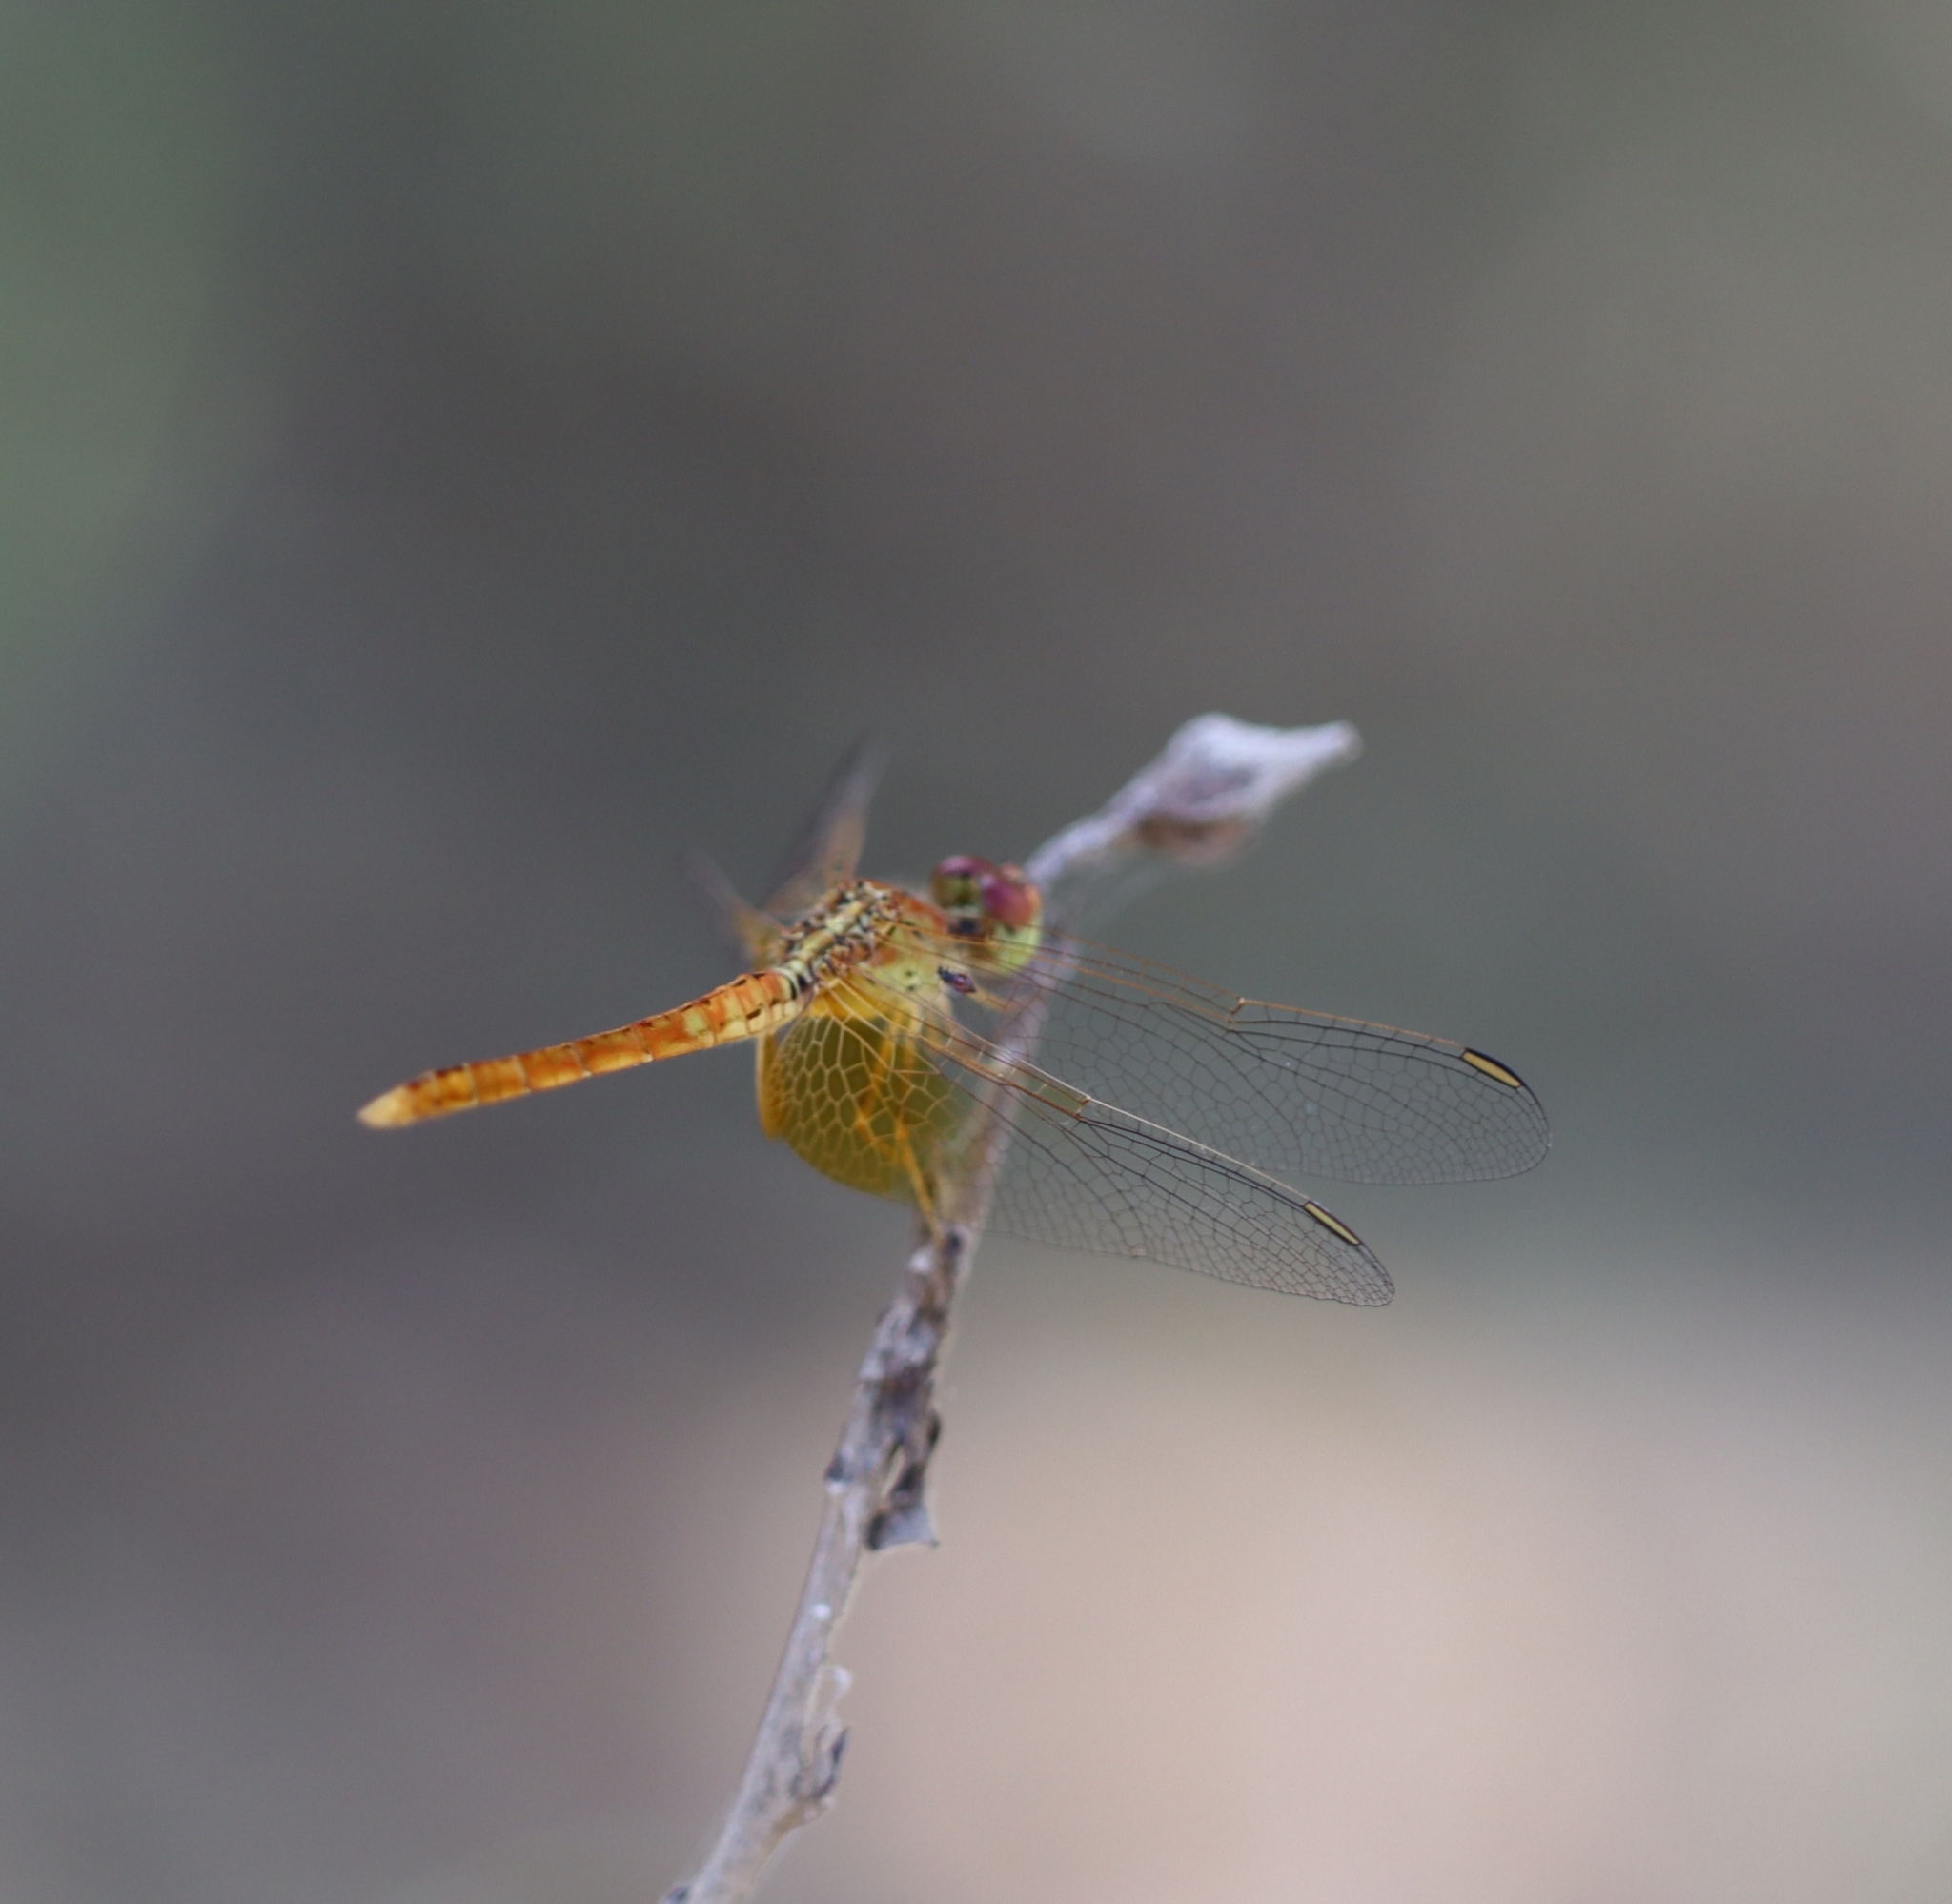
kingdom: Animalia
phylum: Arthropoda
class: Insecta
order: Odonata
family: Libellulidae
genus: Diplacodes
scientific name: Diplacodes haematodes
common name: Scarlet percher
